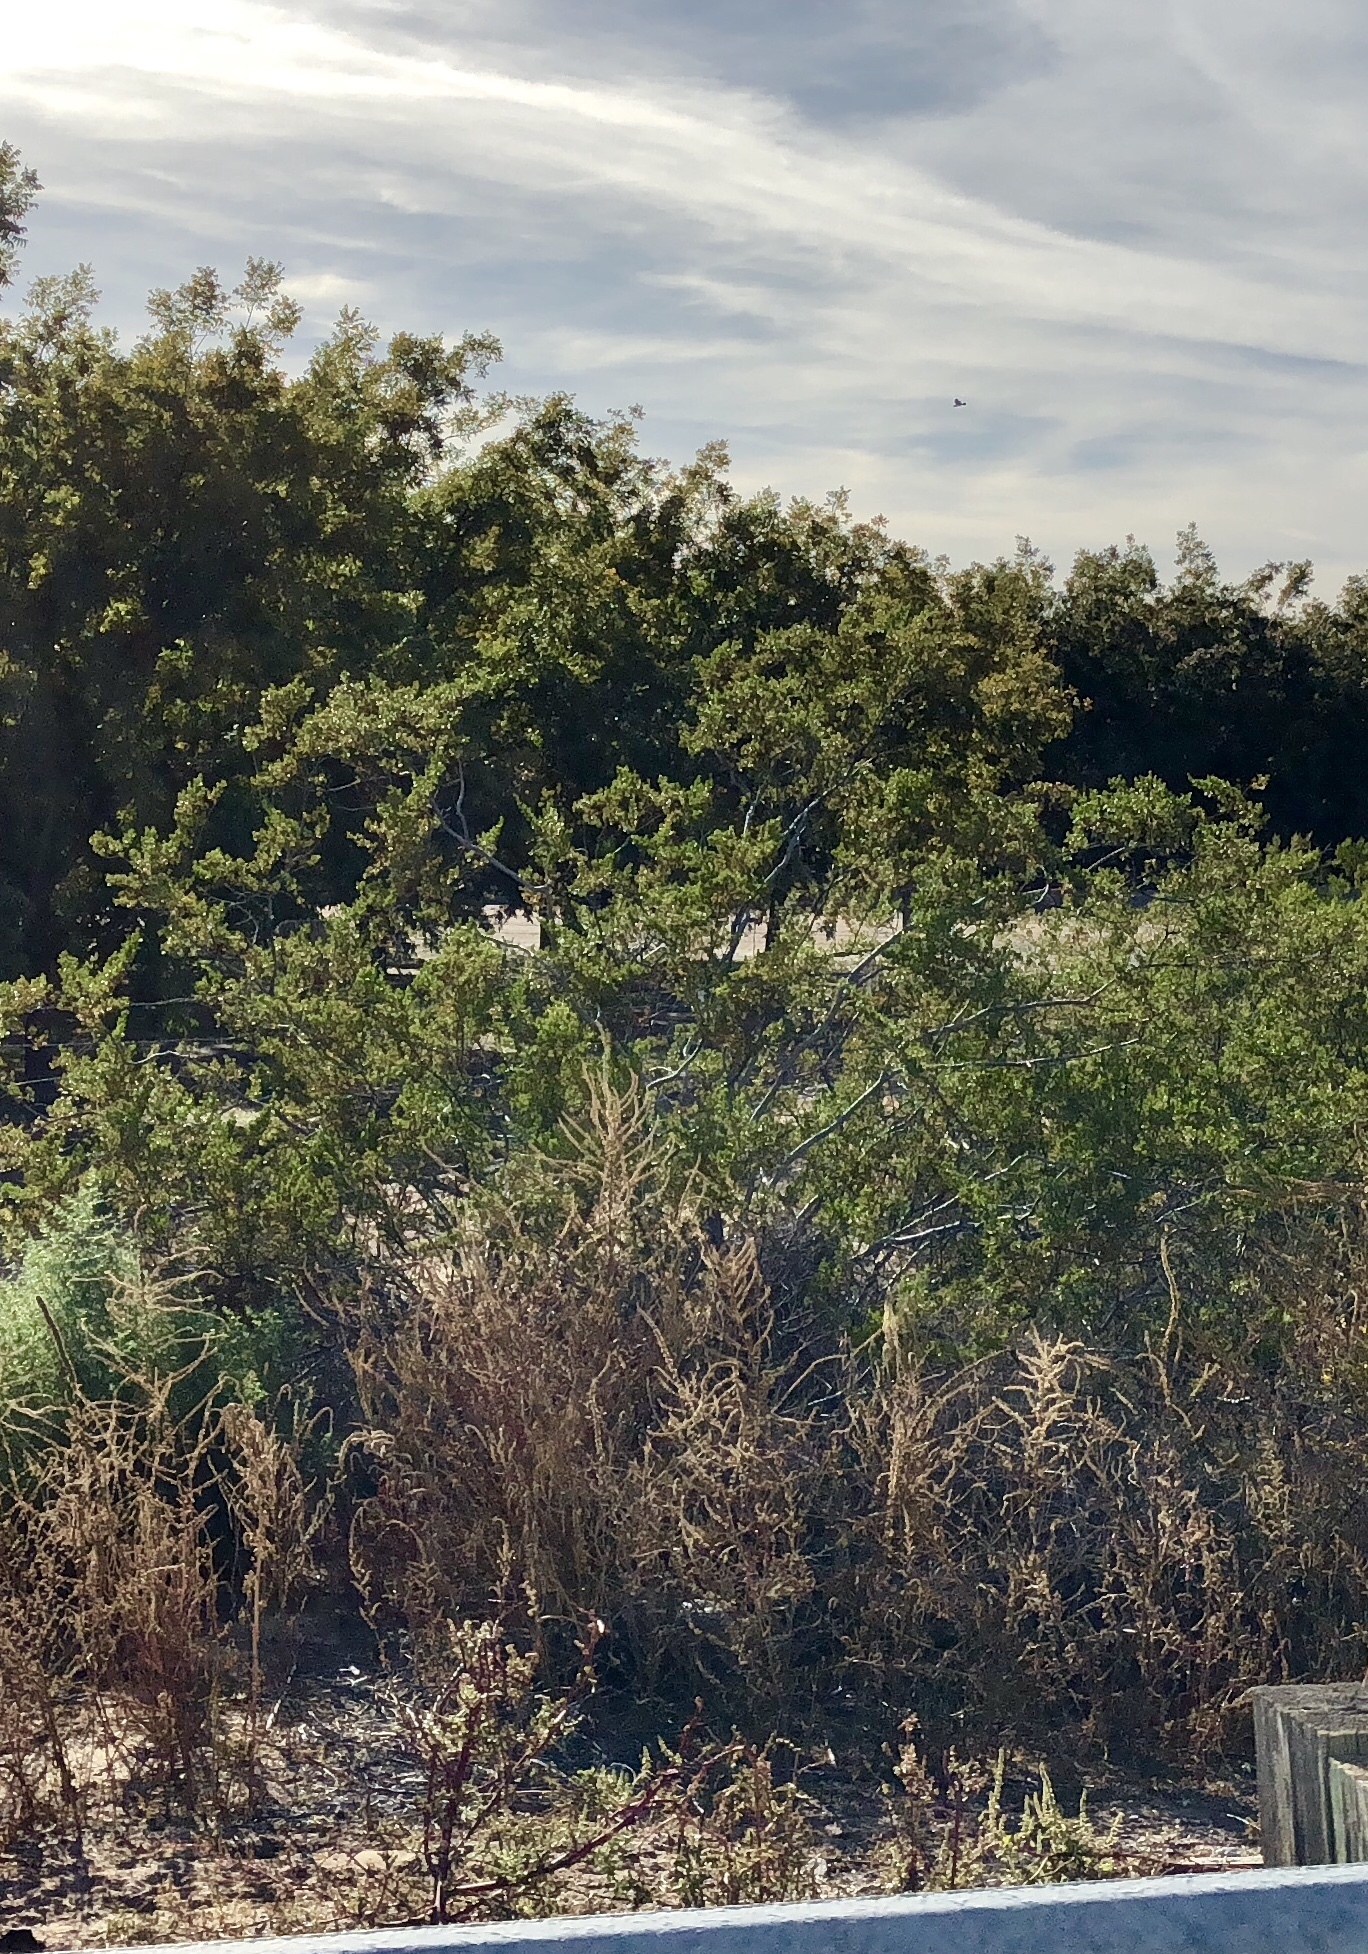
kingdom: Plantae
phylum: Tracheophyta
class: Magnoliopsida
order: Zygophyllales
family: Zygophyllaceae
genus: Larrea
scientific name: Larrea tridentata
